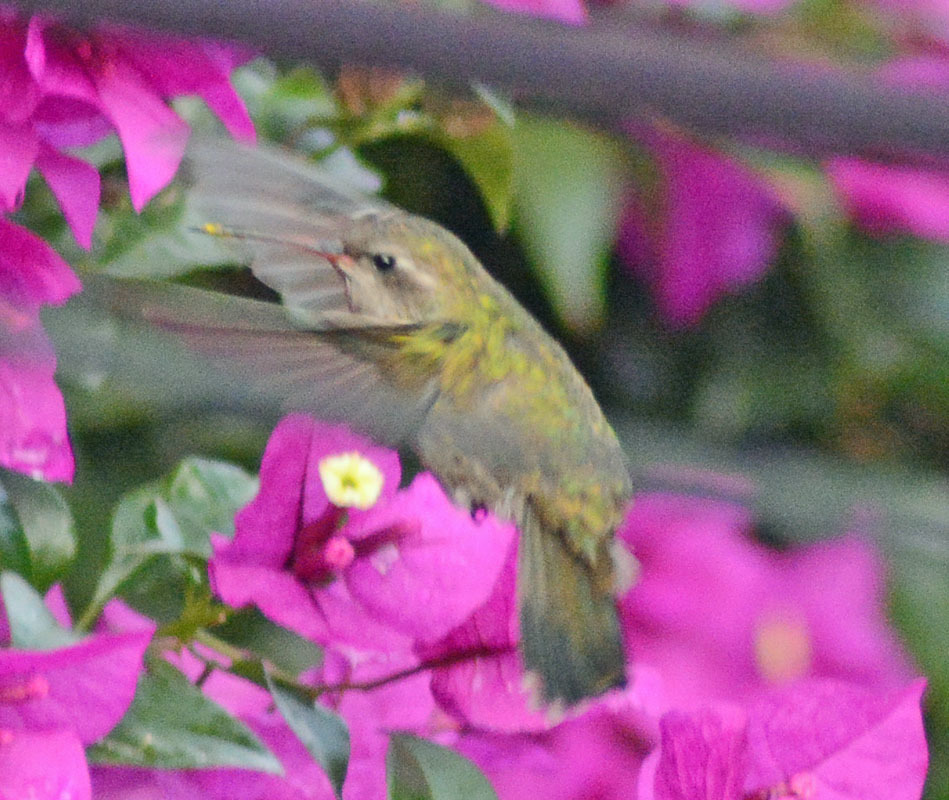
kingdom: Animalia
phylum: Chordata
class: Aves
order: Apodiformes
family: Trochilidae
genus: Cynanthus
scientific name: Cynanthus latirostris
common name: Broad-billed hummingbird
